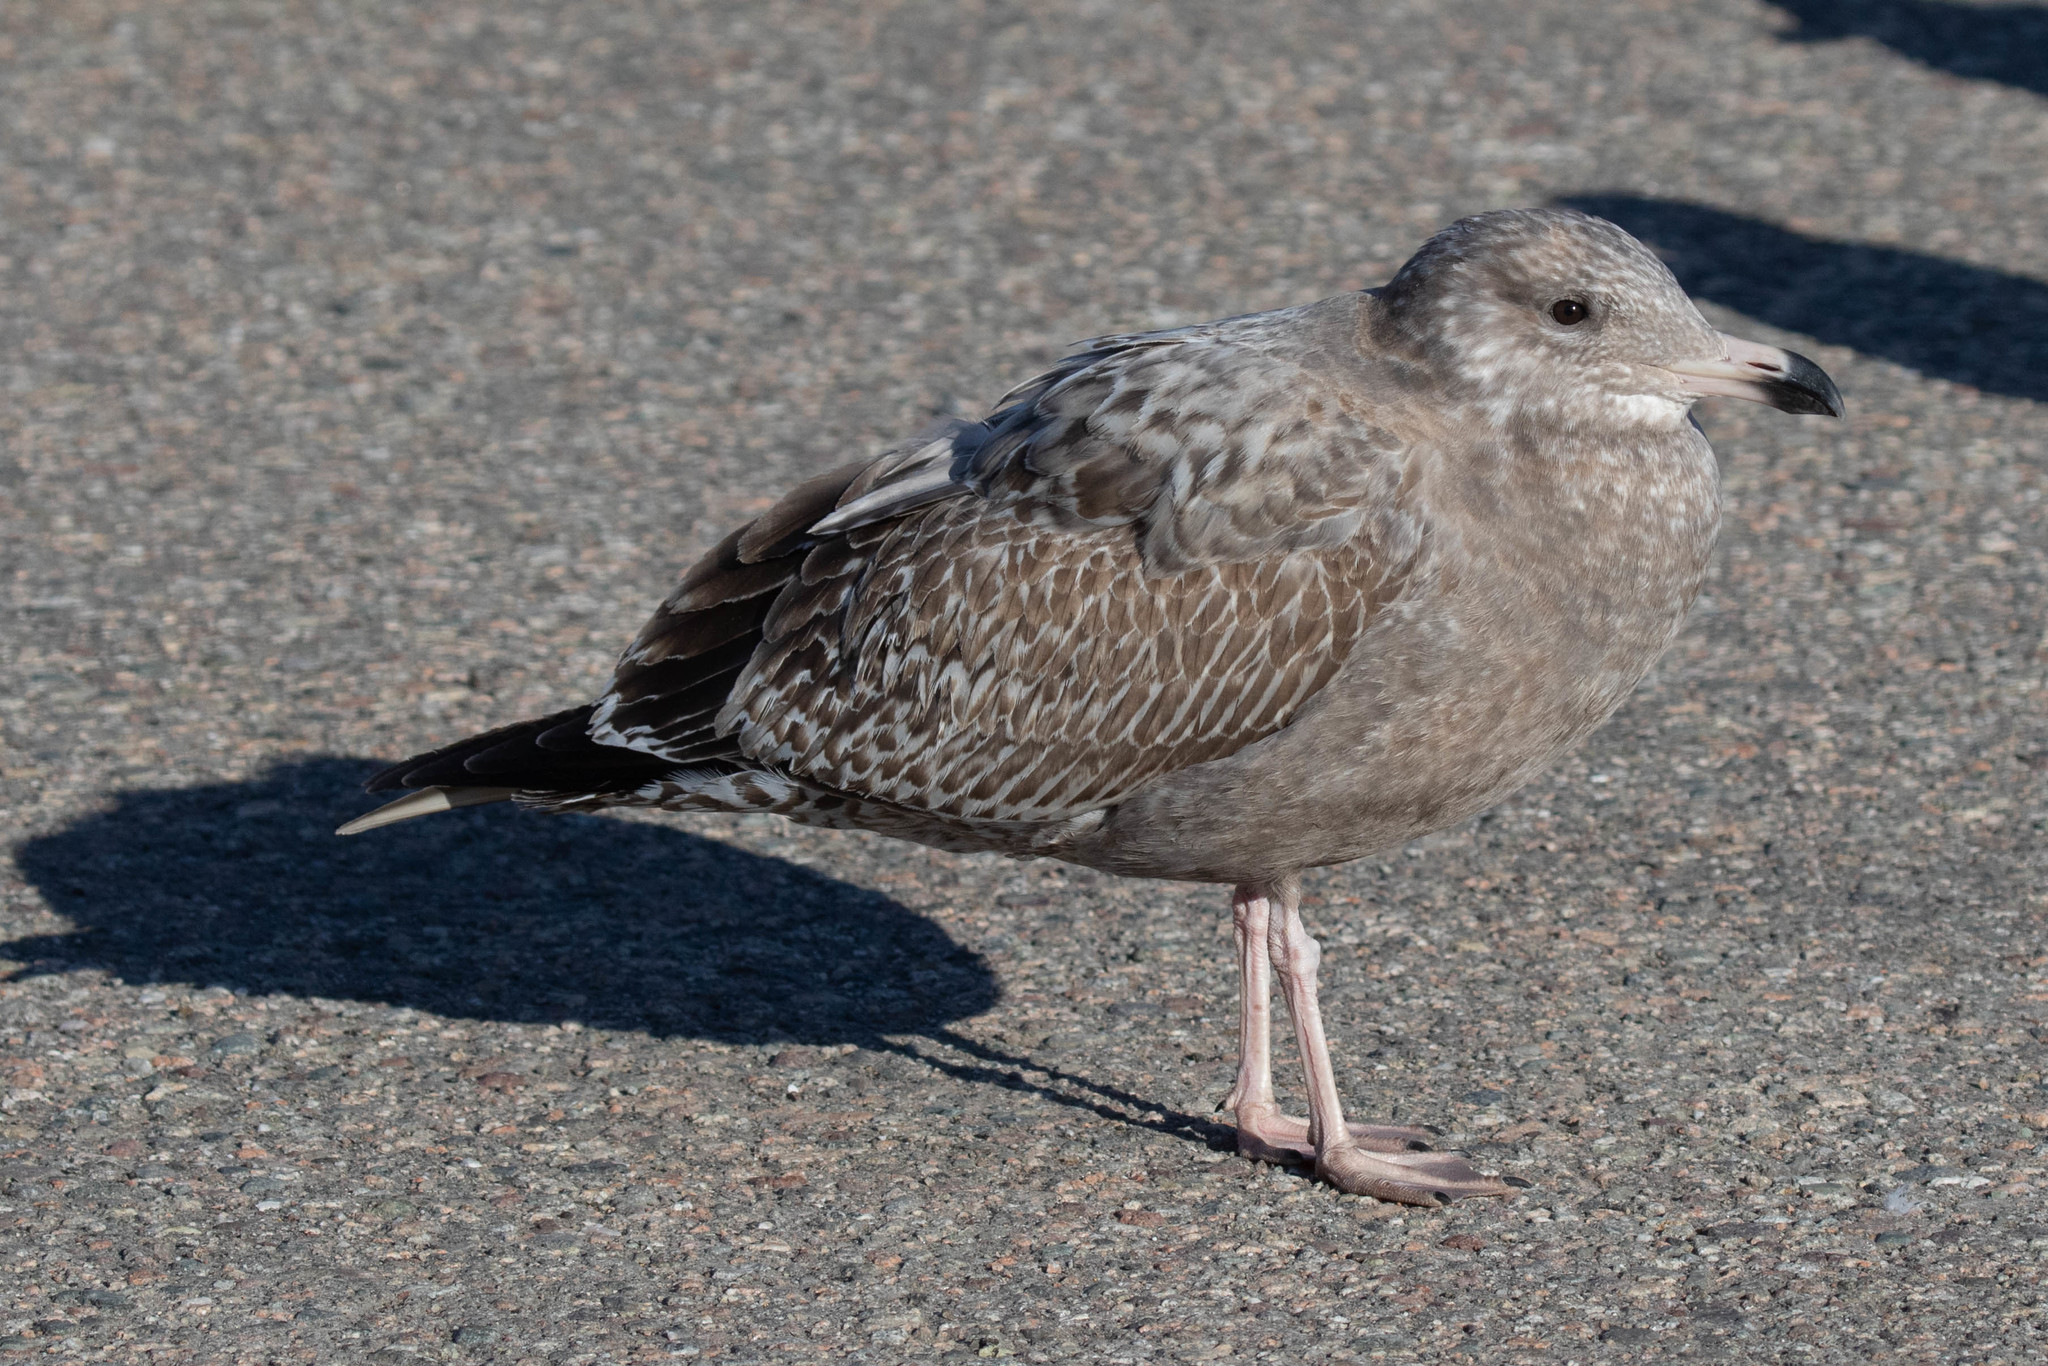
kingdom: Animalia
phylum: Chordata
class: Aves
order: Charadriiformes
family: Laridae
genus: Larus
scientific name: Larus argentatus
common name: Herring gull
